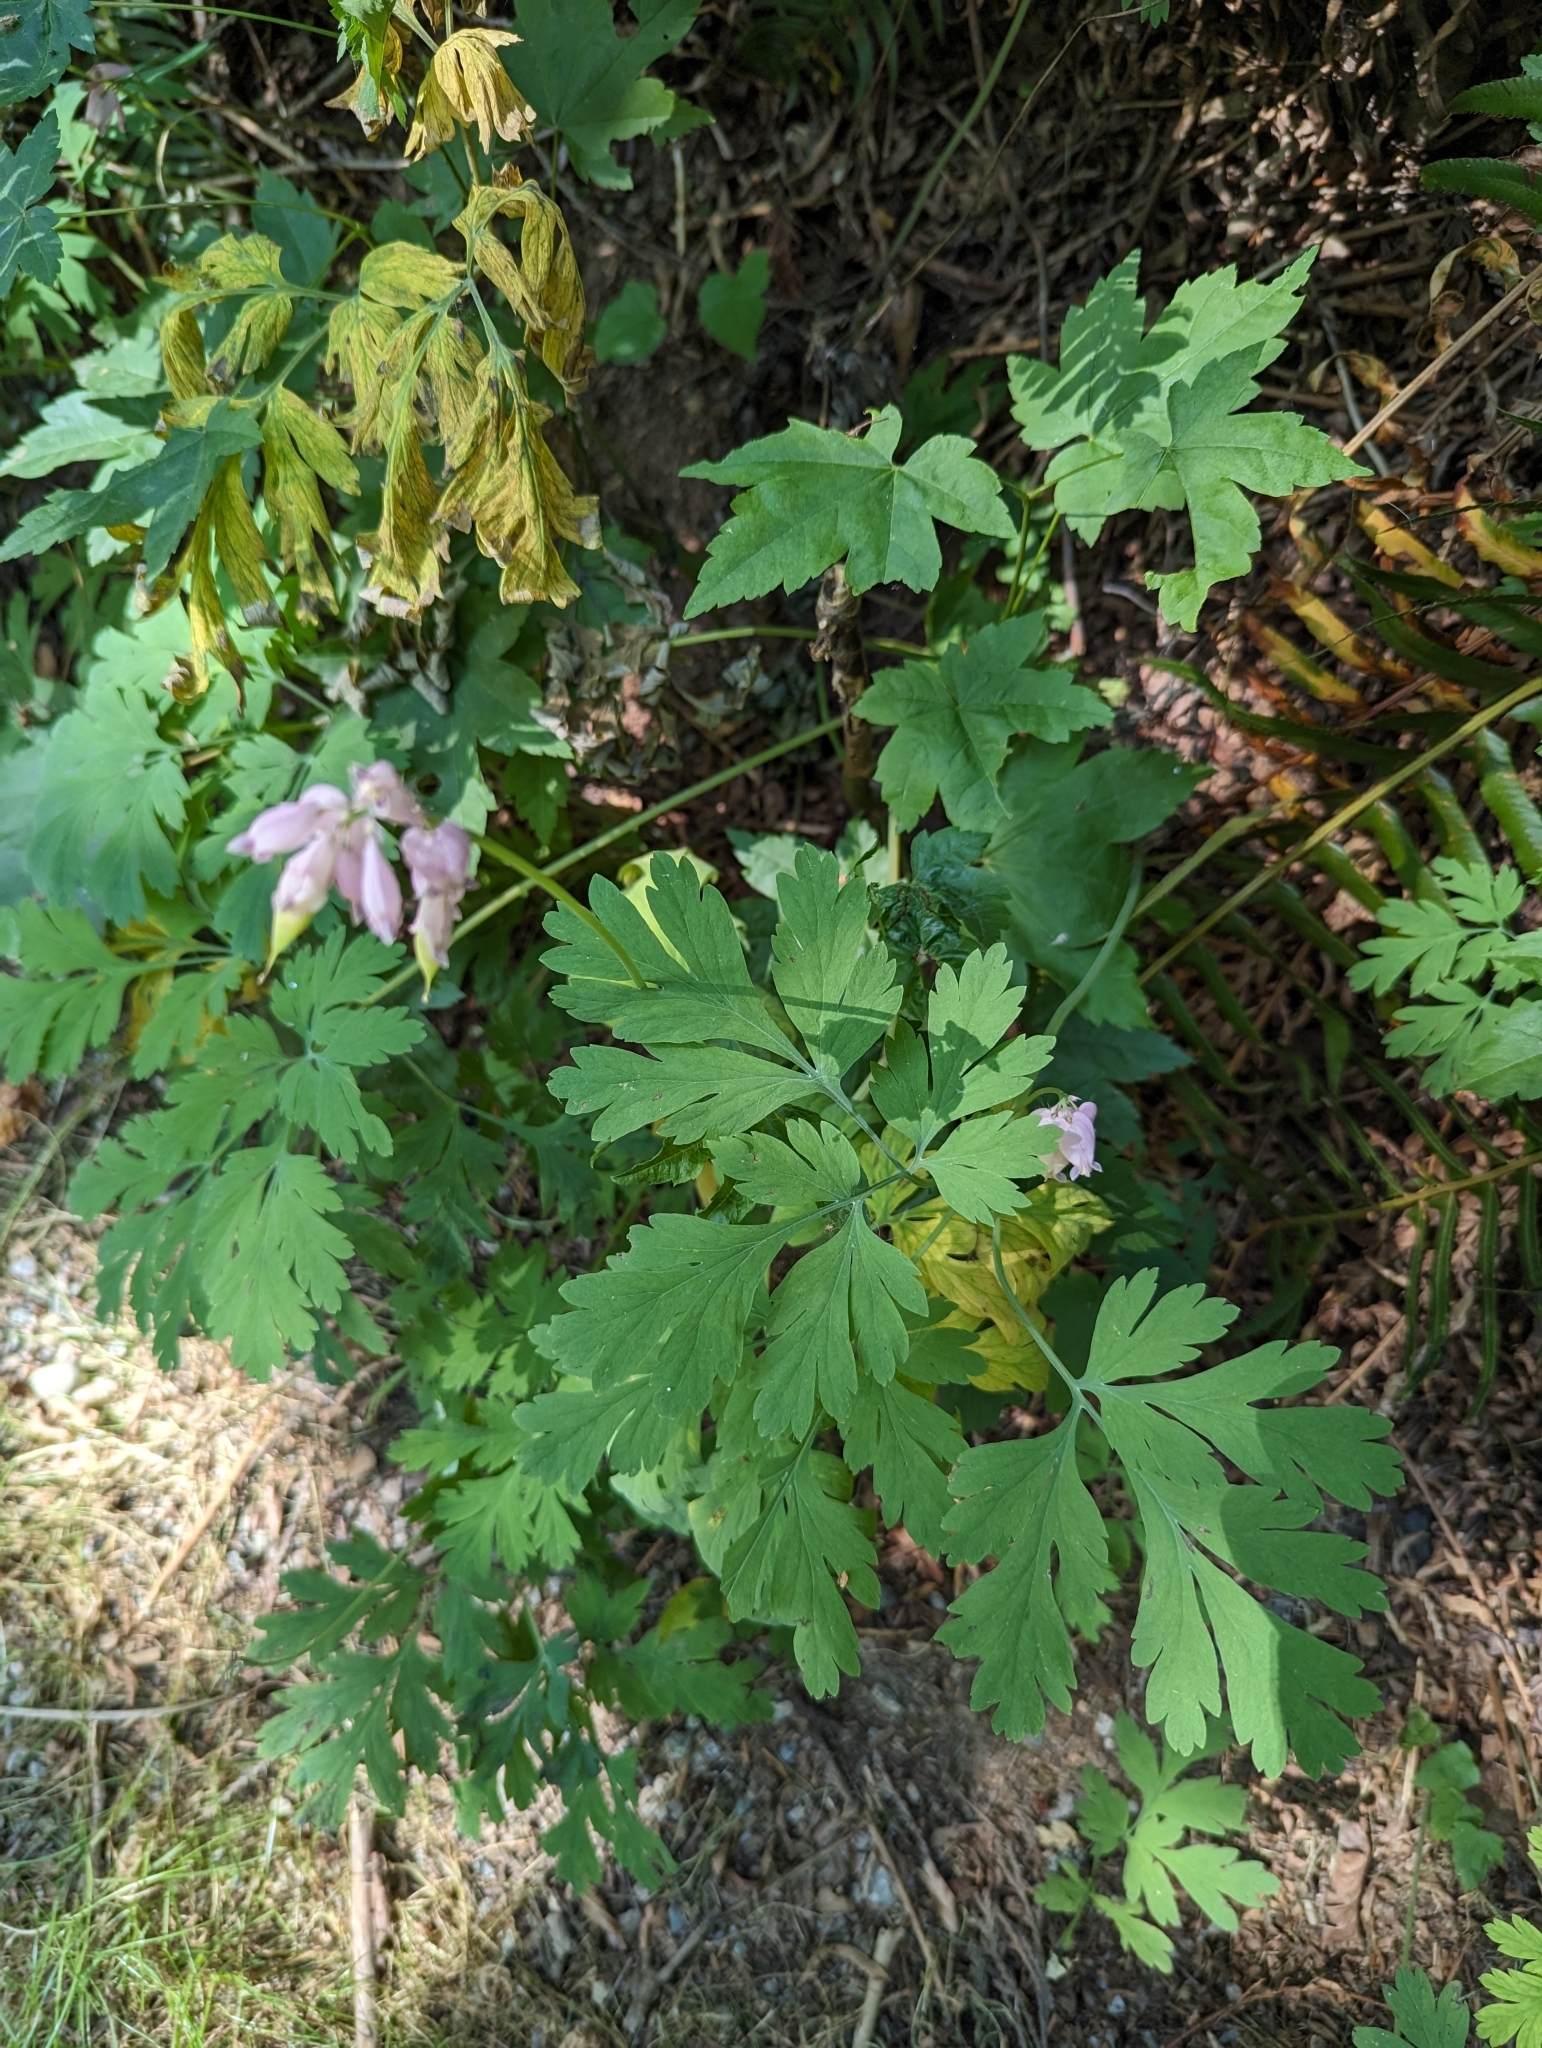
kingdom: Plantae
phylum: Tracheophyta
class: Magnoliopsida
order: Ranunculales
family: Papaveraceae
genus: Dicentra
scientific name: Dicentra formosa
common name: Bleeding-heart
